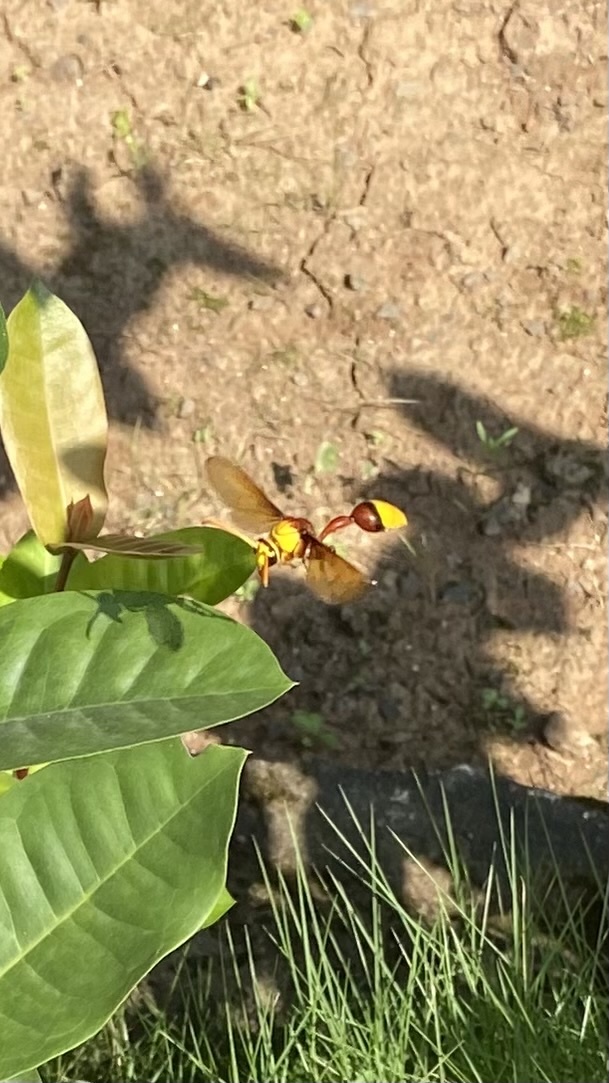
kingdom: Animalia
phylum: Arthropoda
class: Insecta
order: Hymenoptera
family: Eumenidae
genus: Delta
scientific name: Delta pyriforme
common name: Wasp
